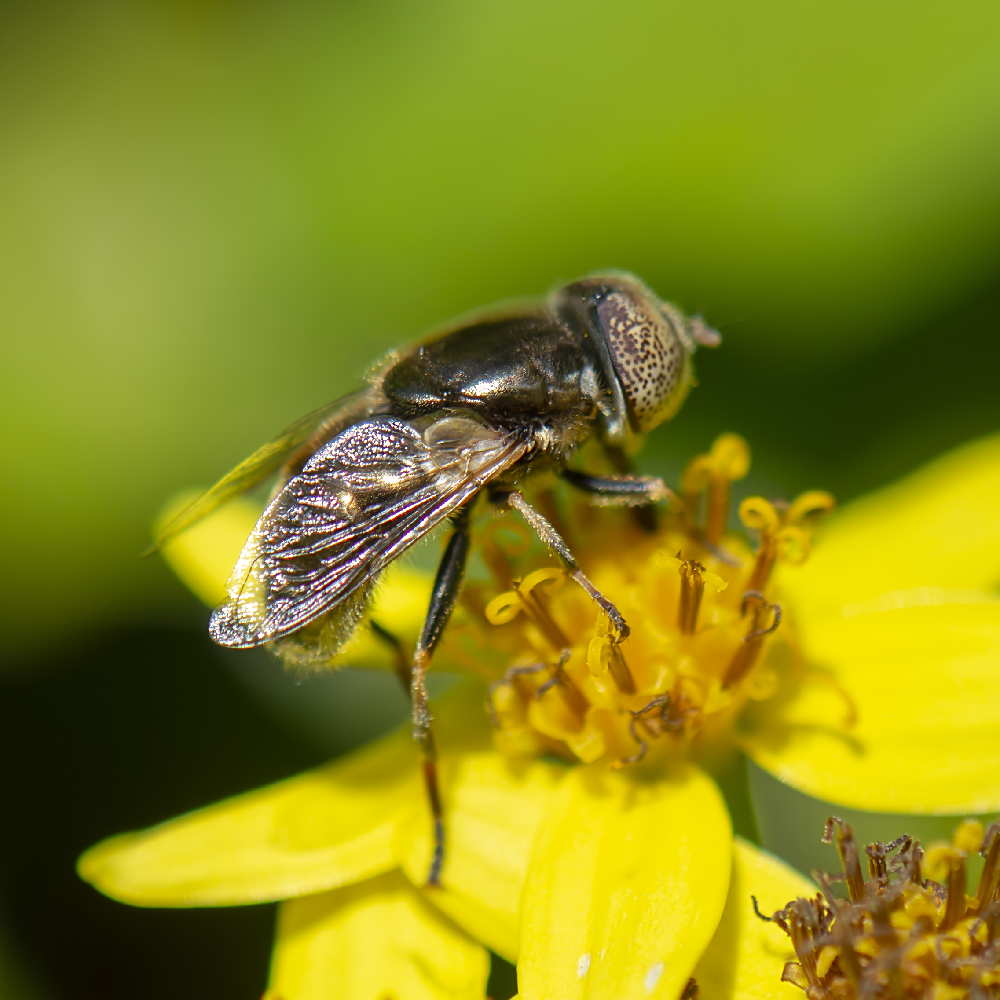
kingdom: Animalia
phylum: Arthropoda
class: Insecta
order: Diptera
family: Syrphidae
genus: Eristalinus
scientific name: Eristalinus aeneus
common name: Syrphid fly
